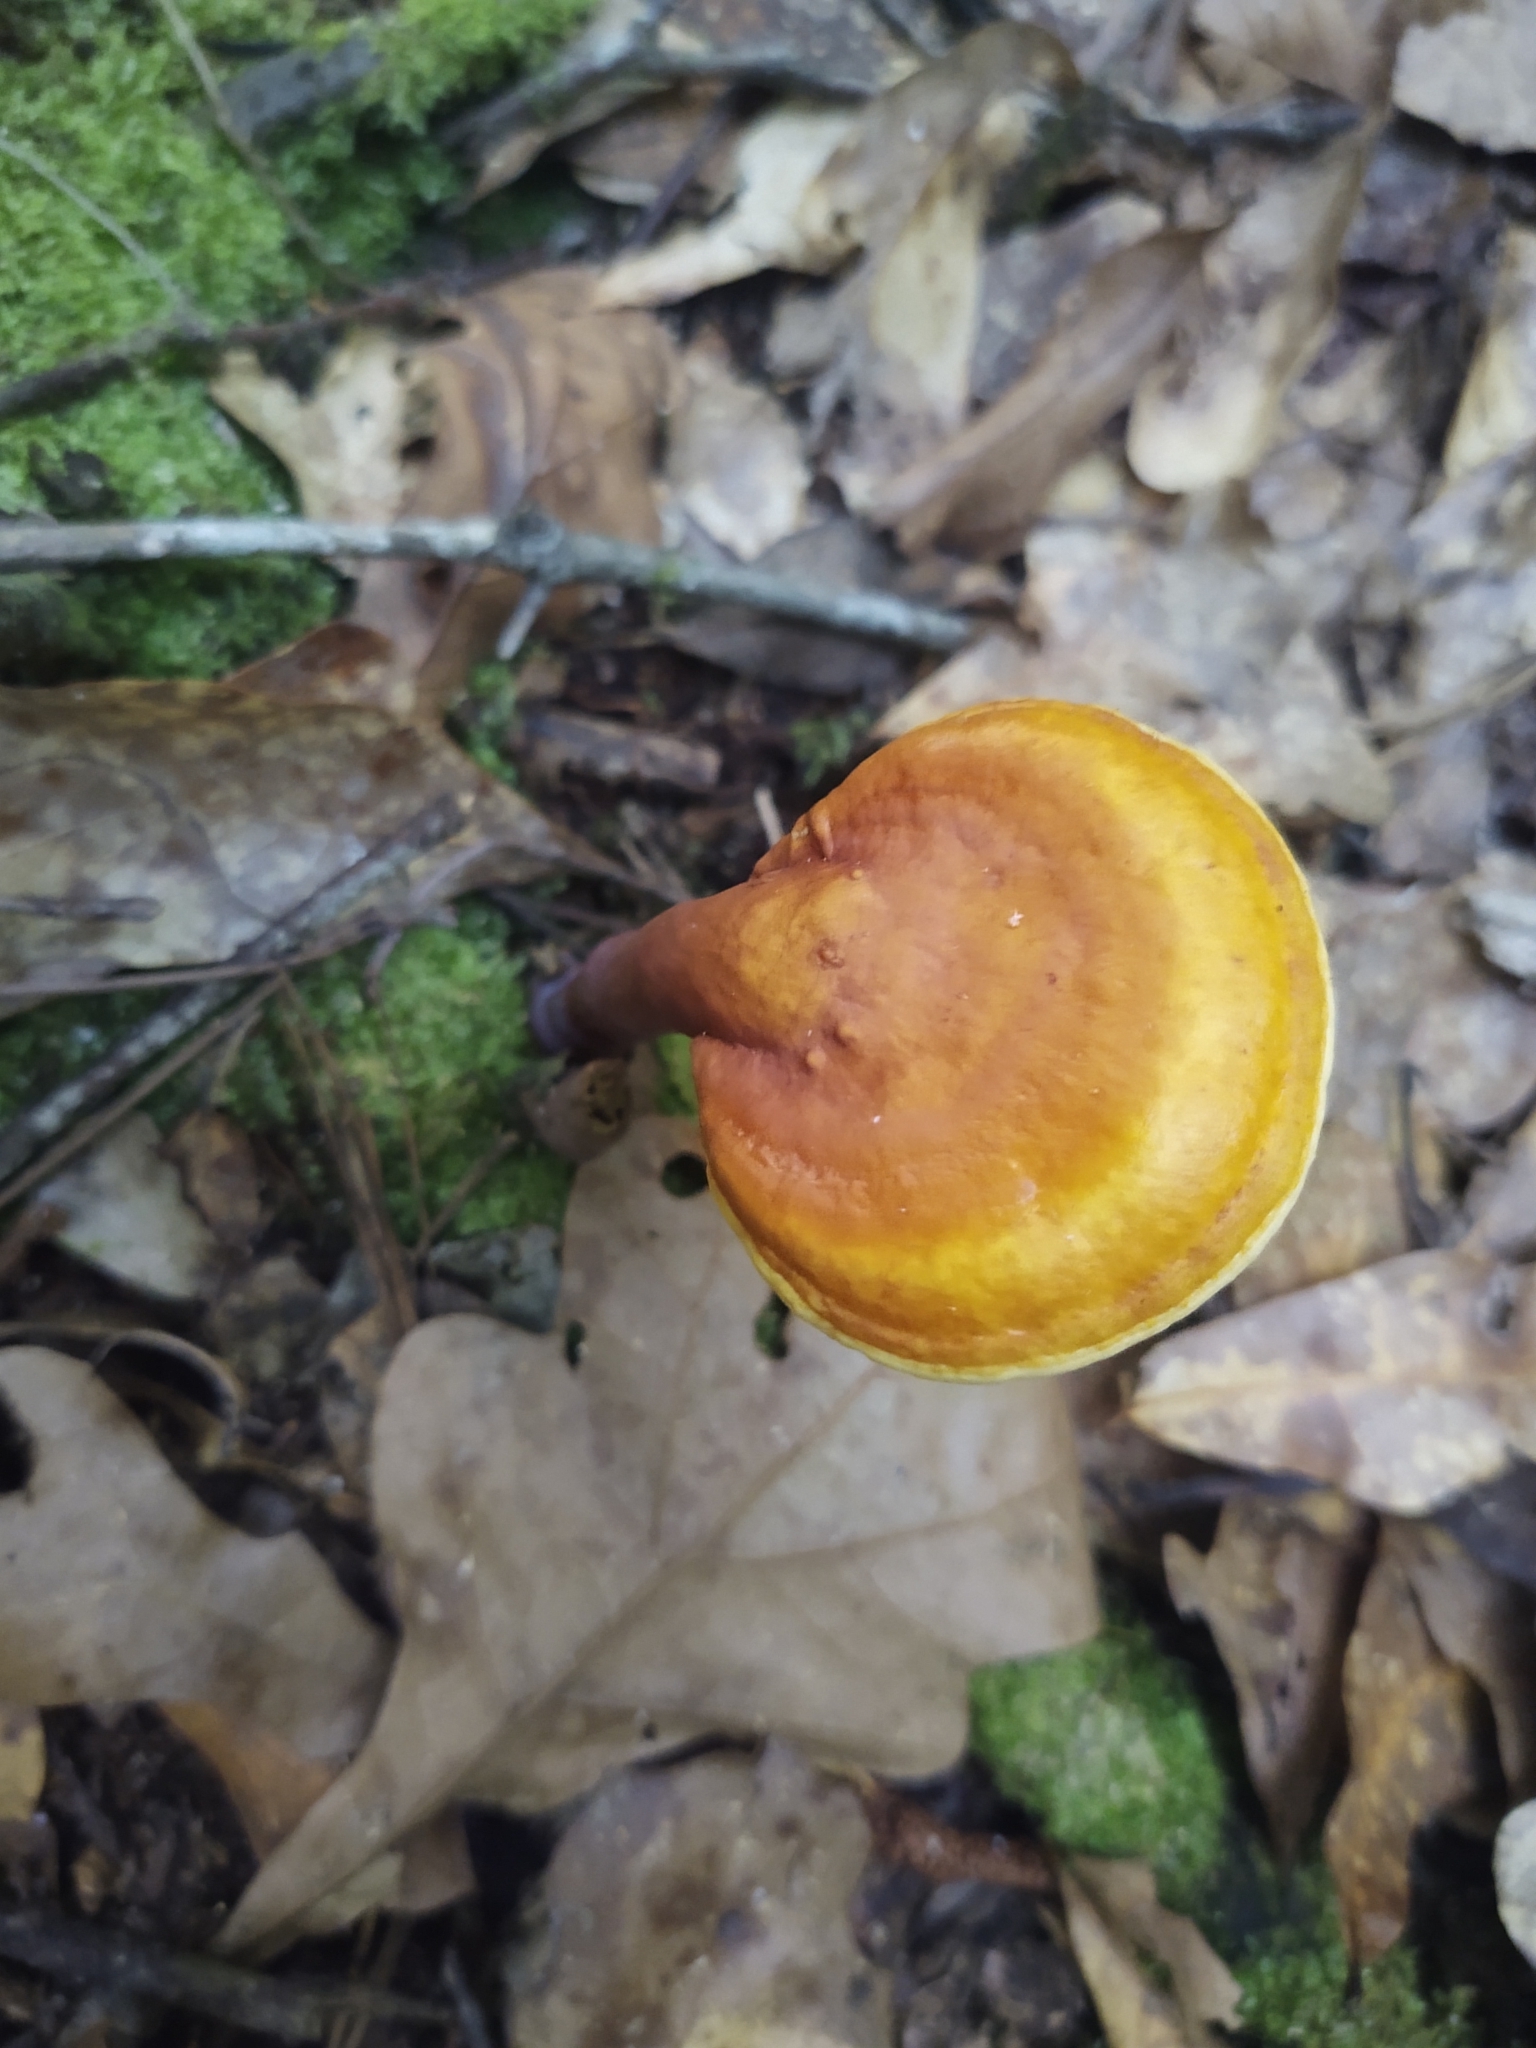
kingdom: Fungi
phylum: Basidiomycota
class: Agaricomycetes
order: Polyporales
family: Polyporaceae
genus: Ganoderma
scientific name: Ganoderma curtisii
